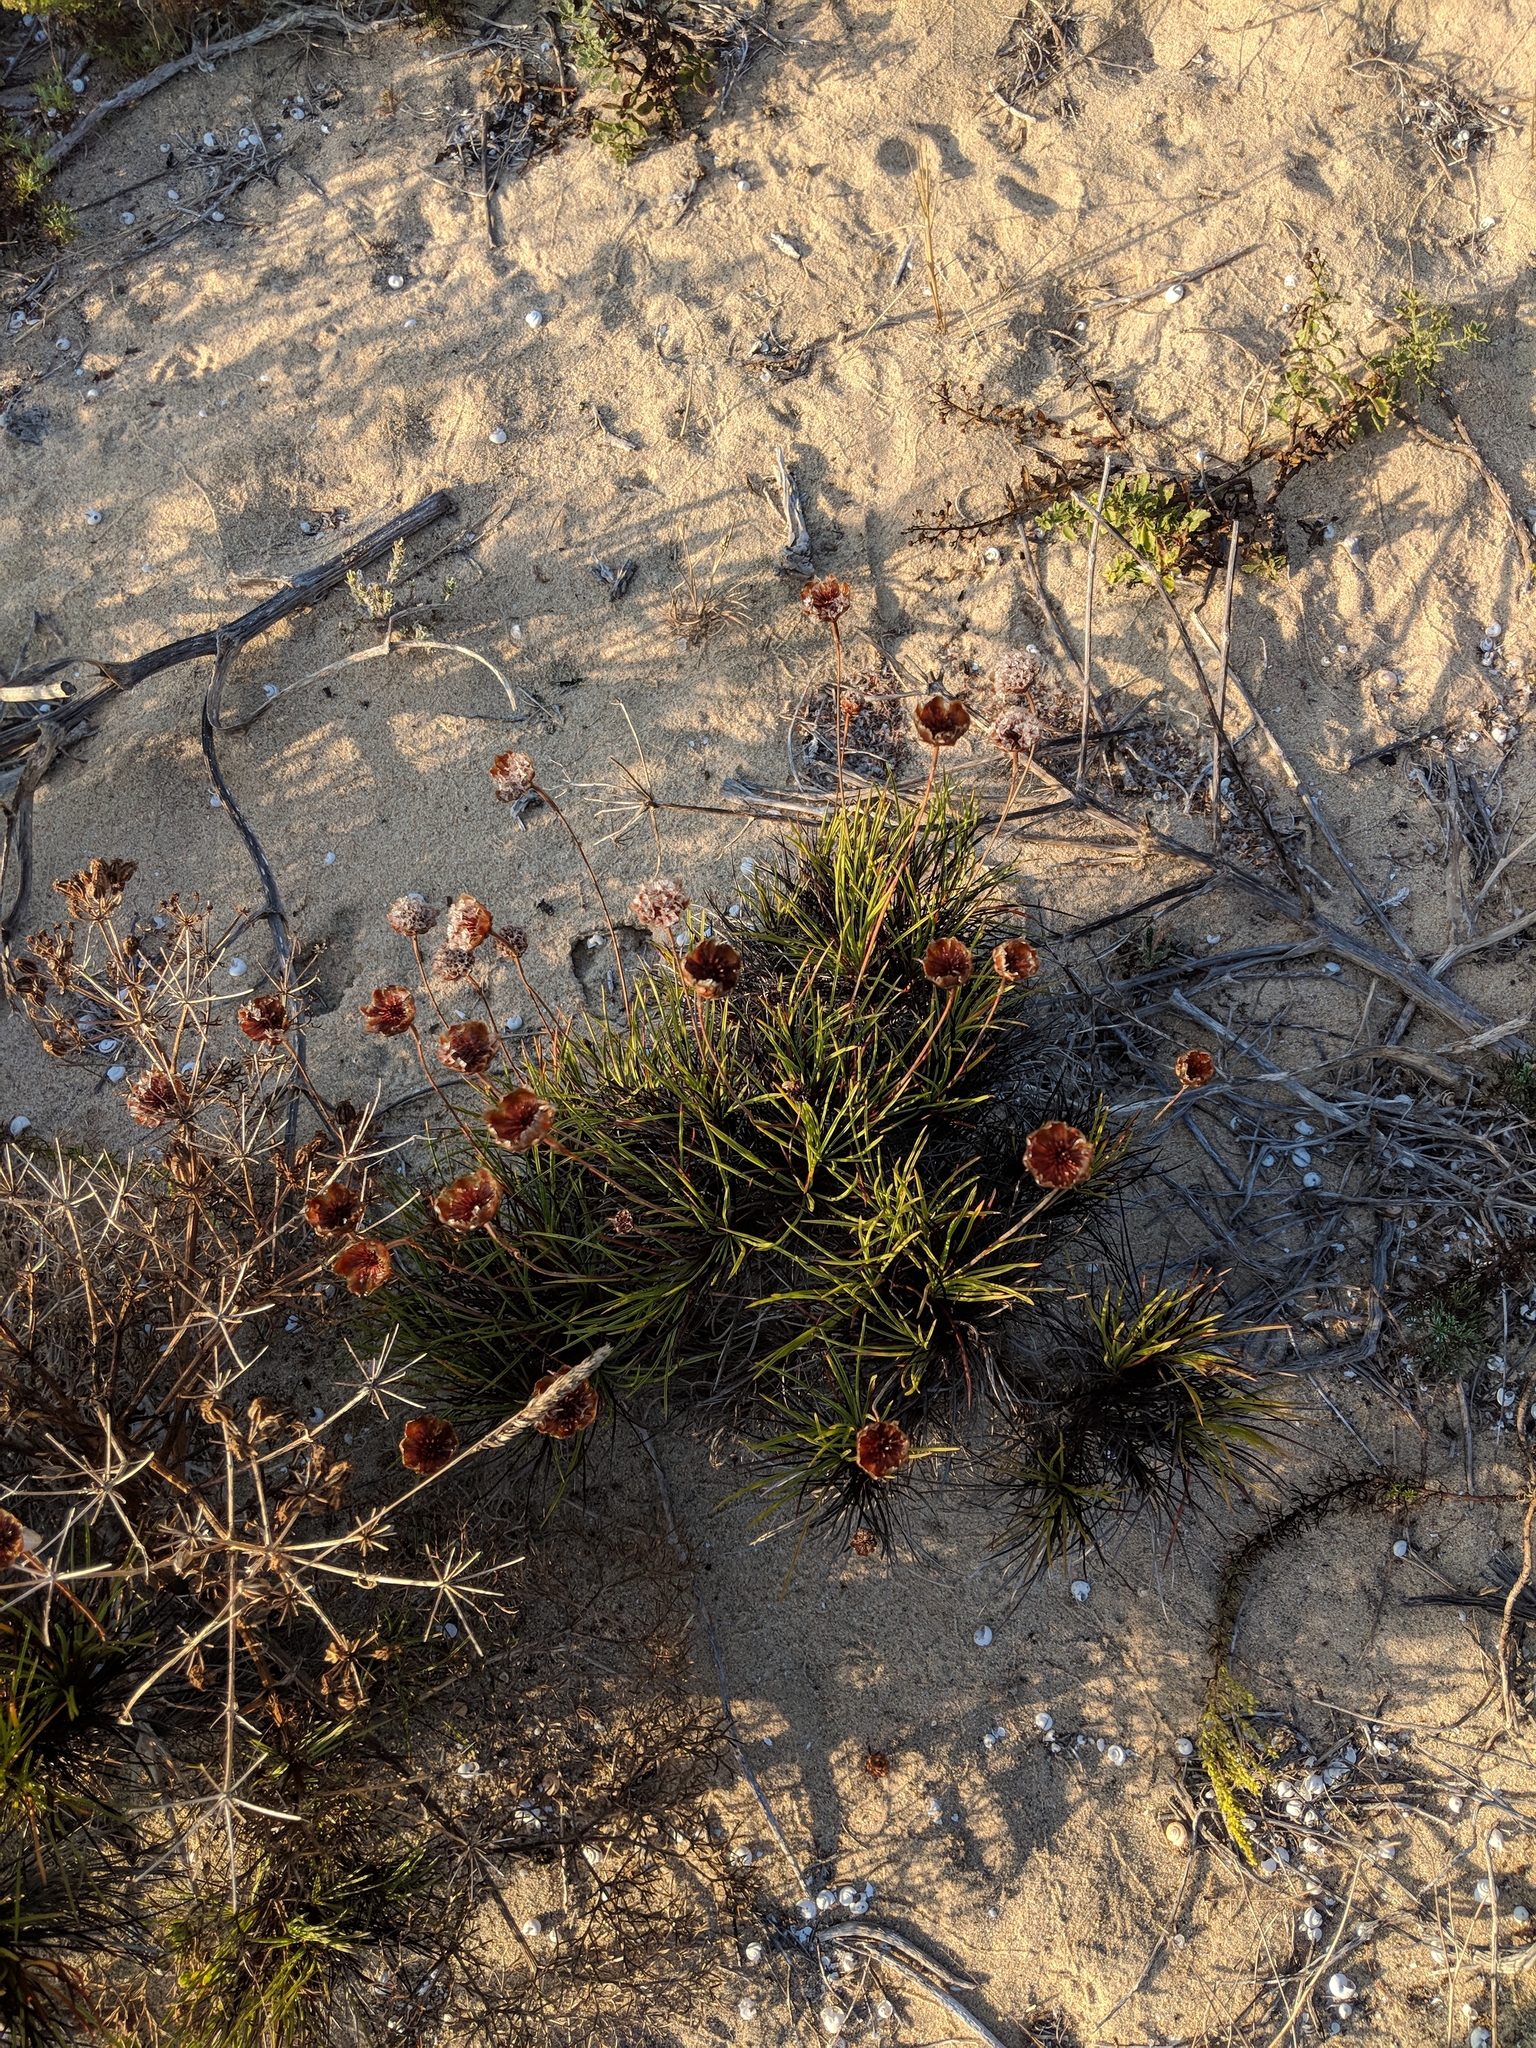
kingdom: Plantae
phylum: Tracheophyta
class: Magnoliopsida
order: Caryophyllales
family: Plumbaginaceae
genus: Armeria
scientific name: Armeria pungens
